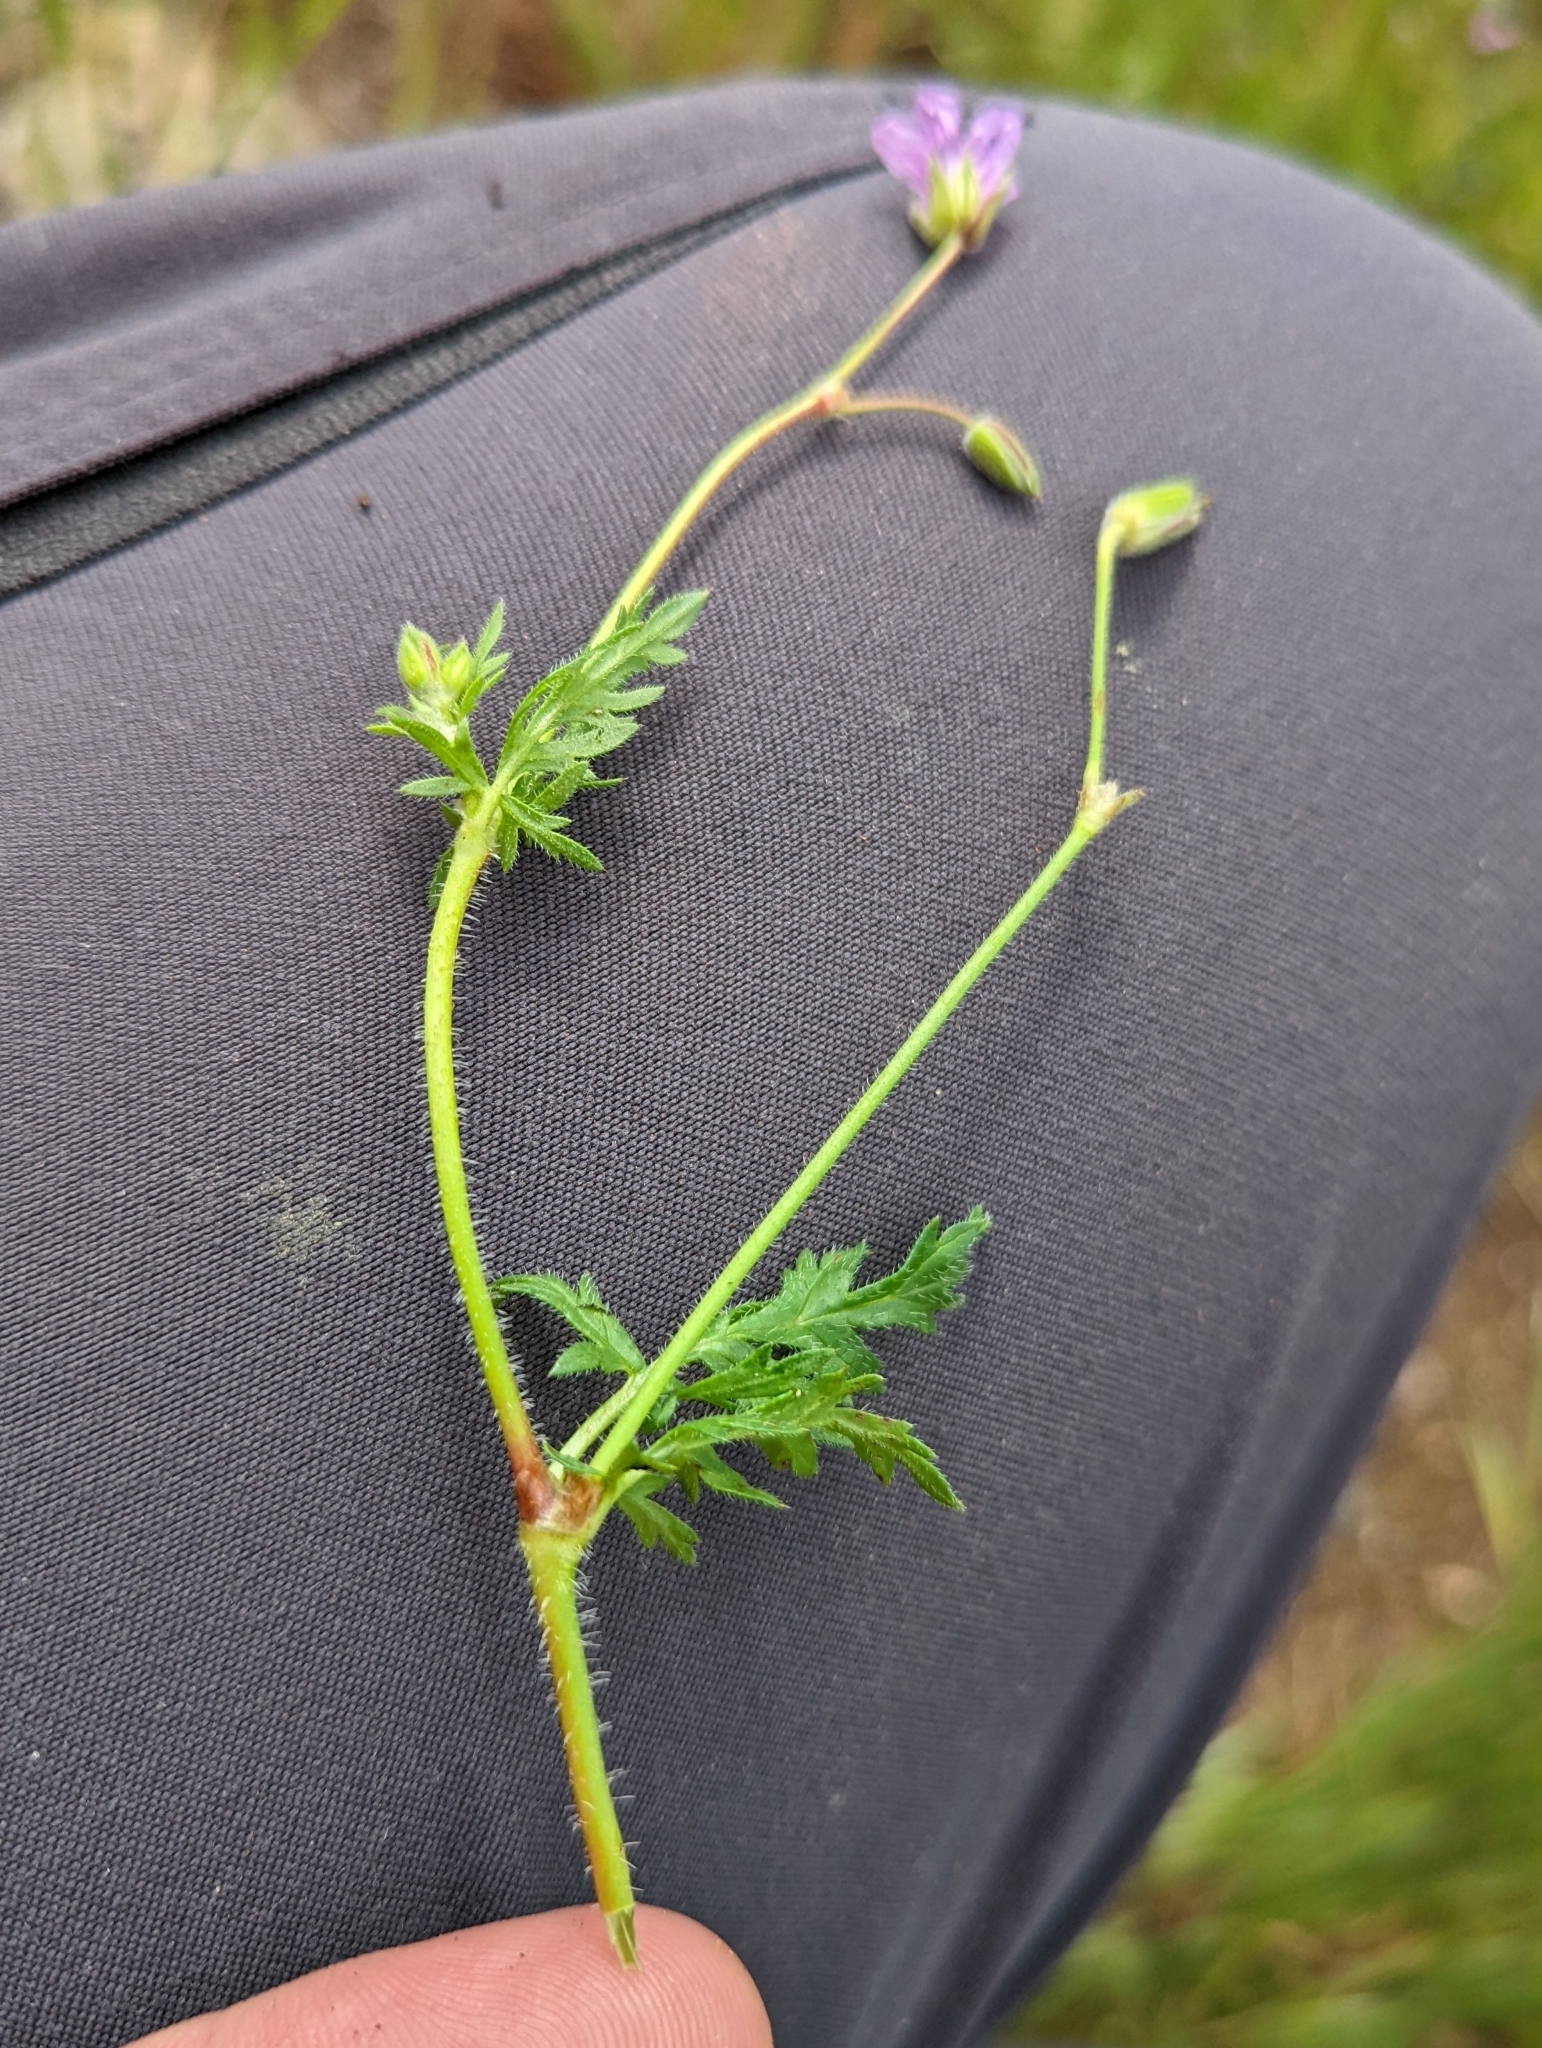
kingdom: Plantae
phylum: Tracheophyta
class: Magnoliopsida
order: Geraniales
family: Geraniaceae
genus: Erodium
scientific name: Erodium botrys
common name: Mediterranean stork's-bill
